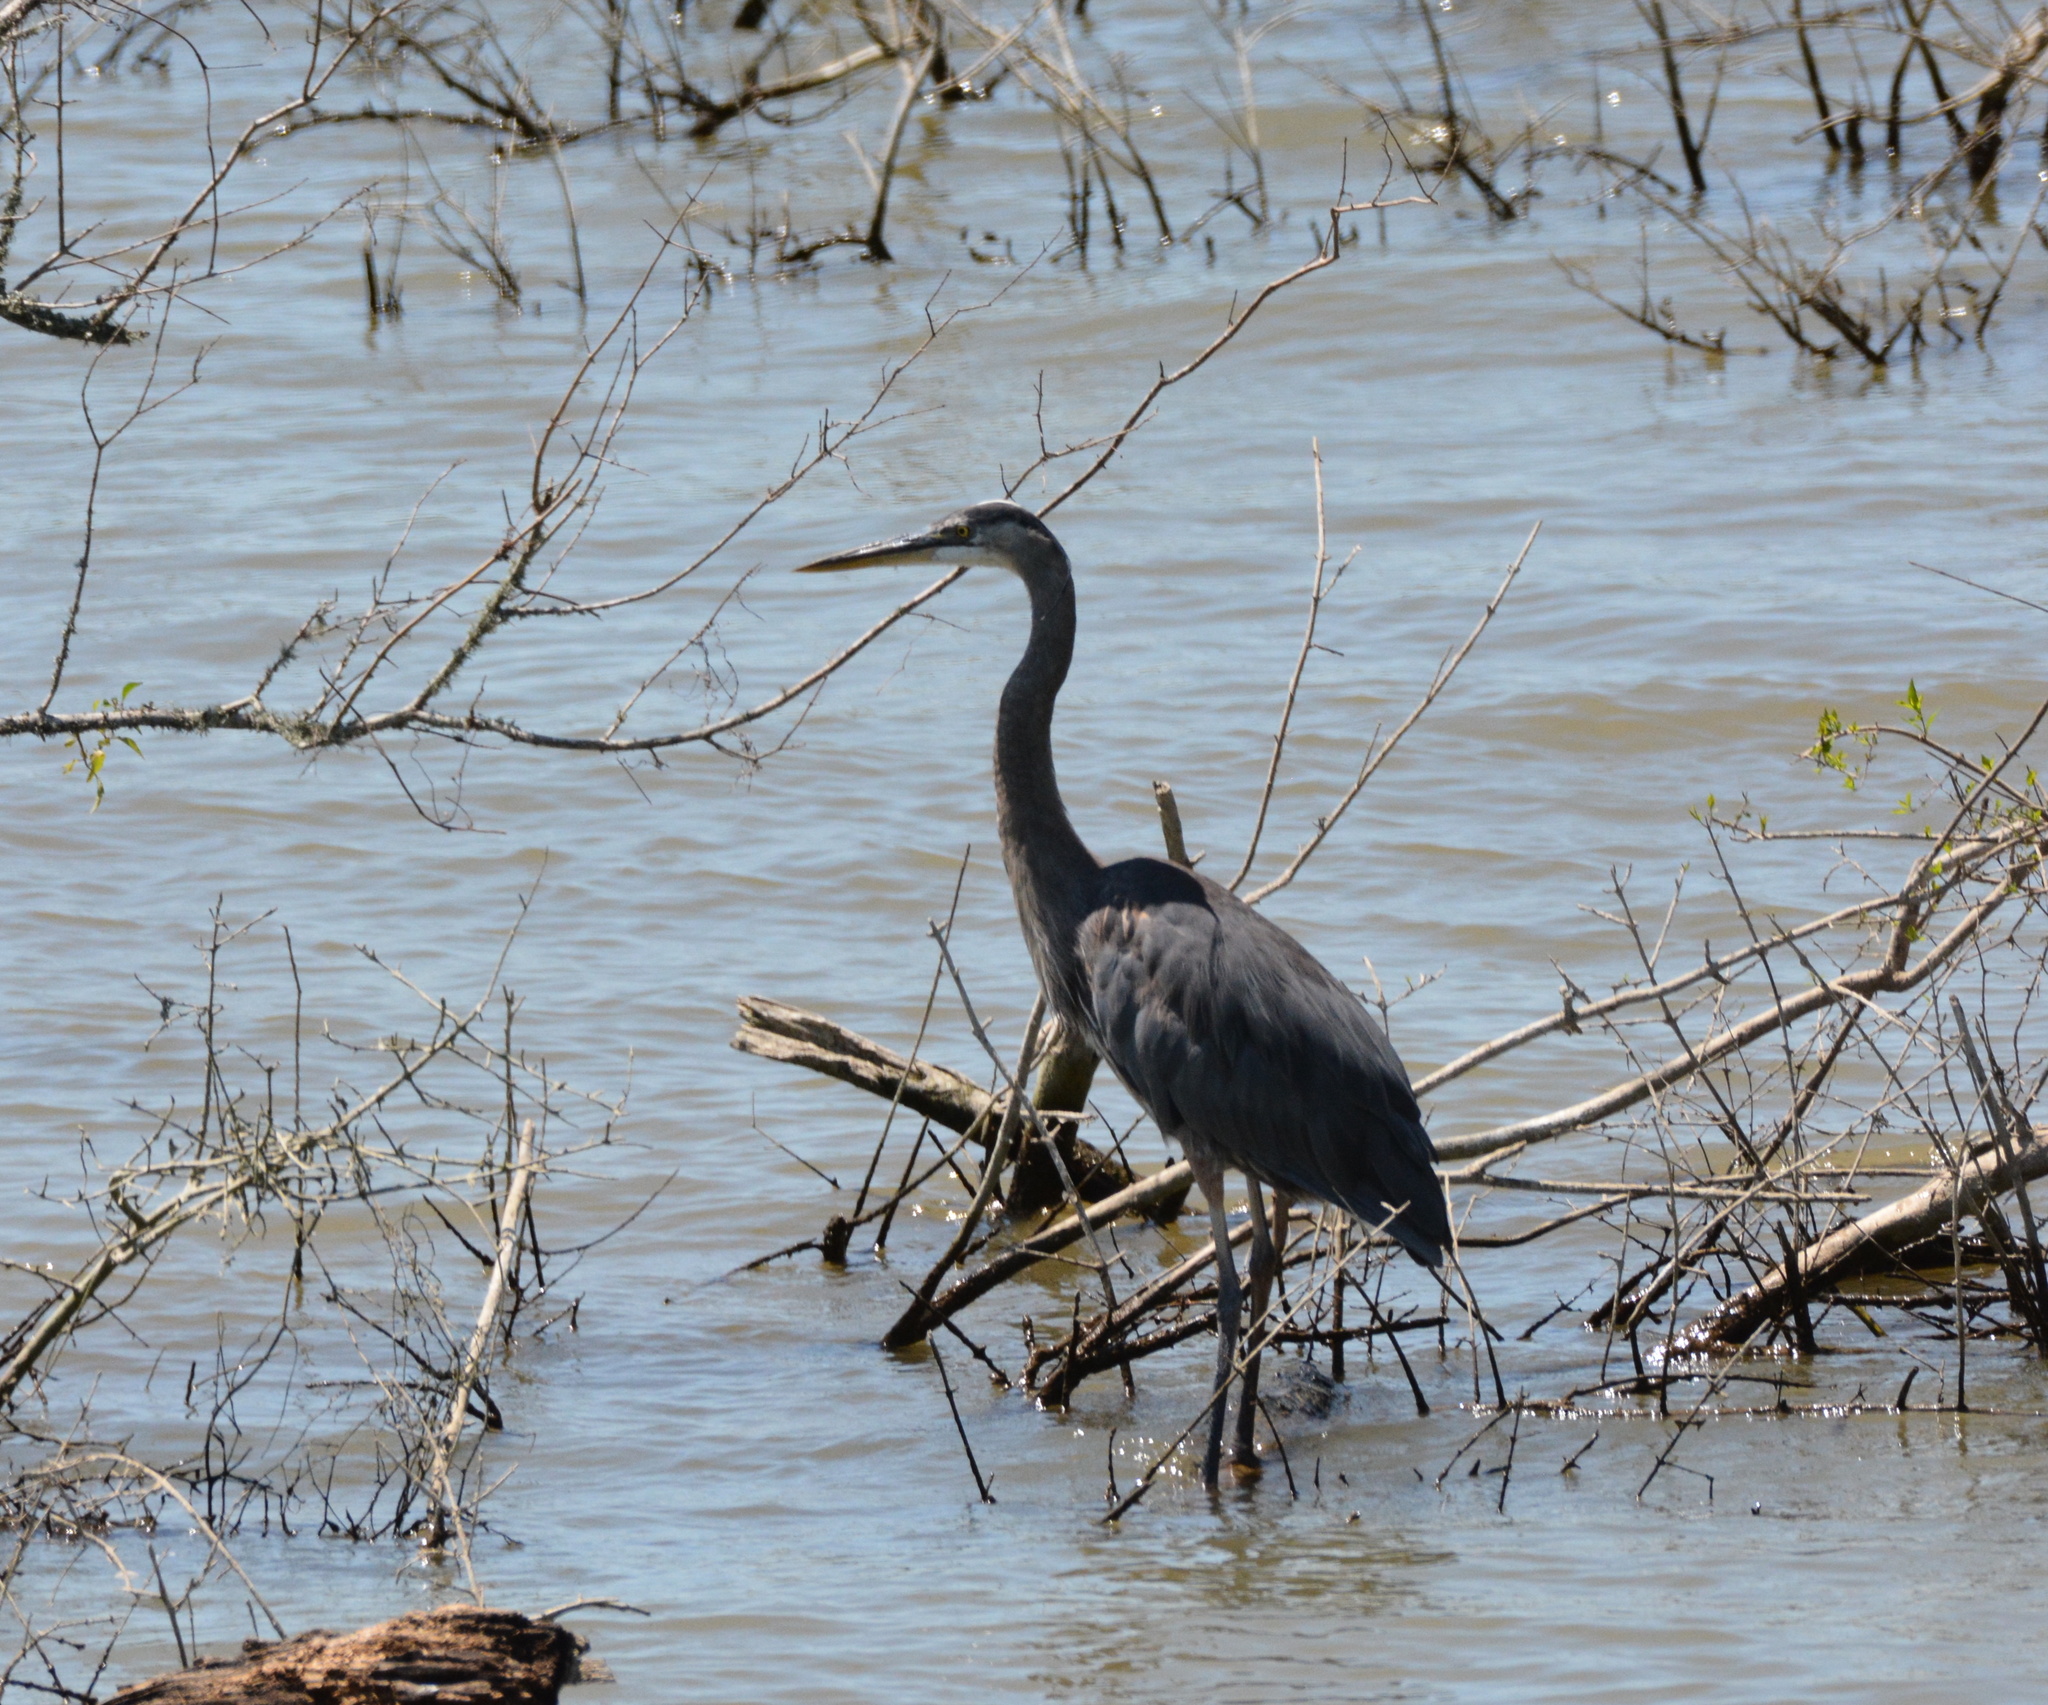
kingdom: Animalia
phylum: Chordata
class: Aves
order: Pelecaniformes
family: Ardeidae
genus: Ardea
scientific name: Ardea herodias
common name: Great blue heron
